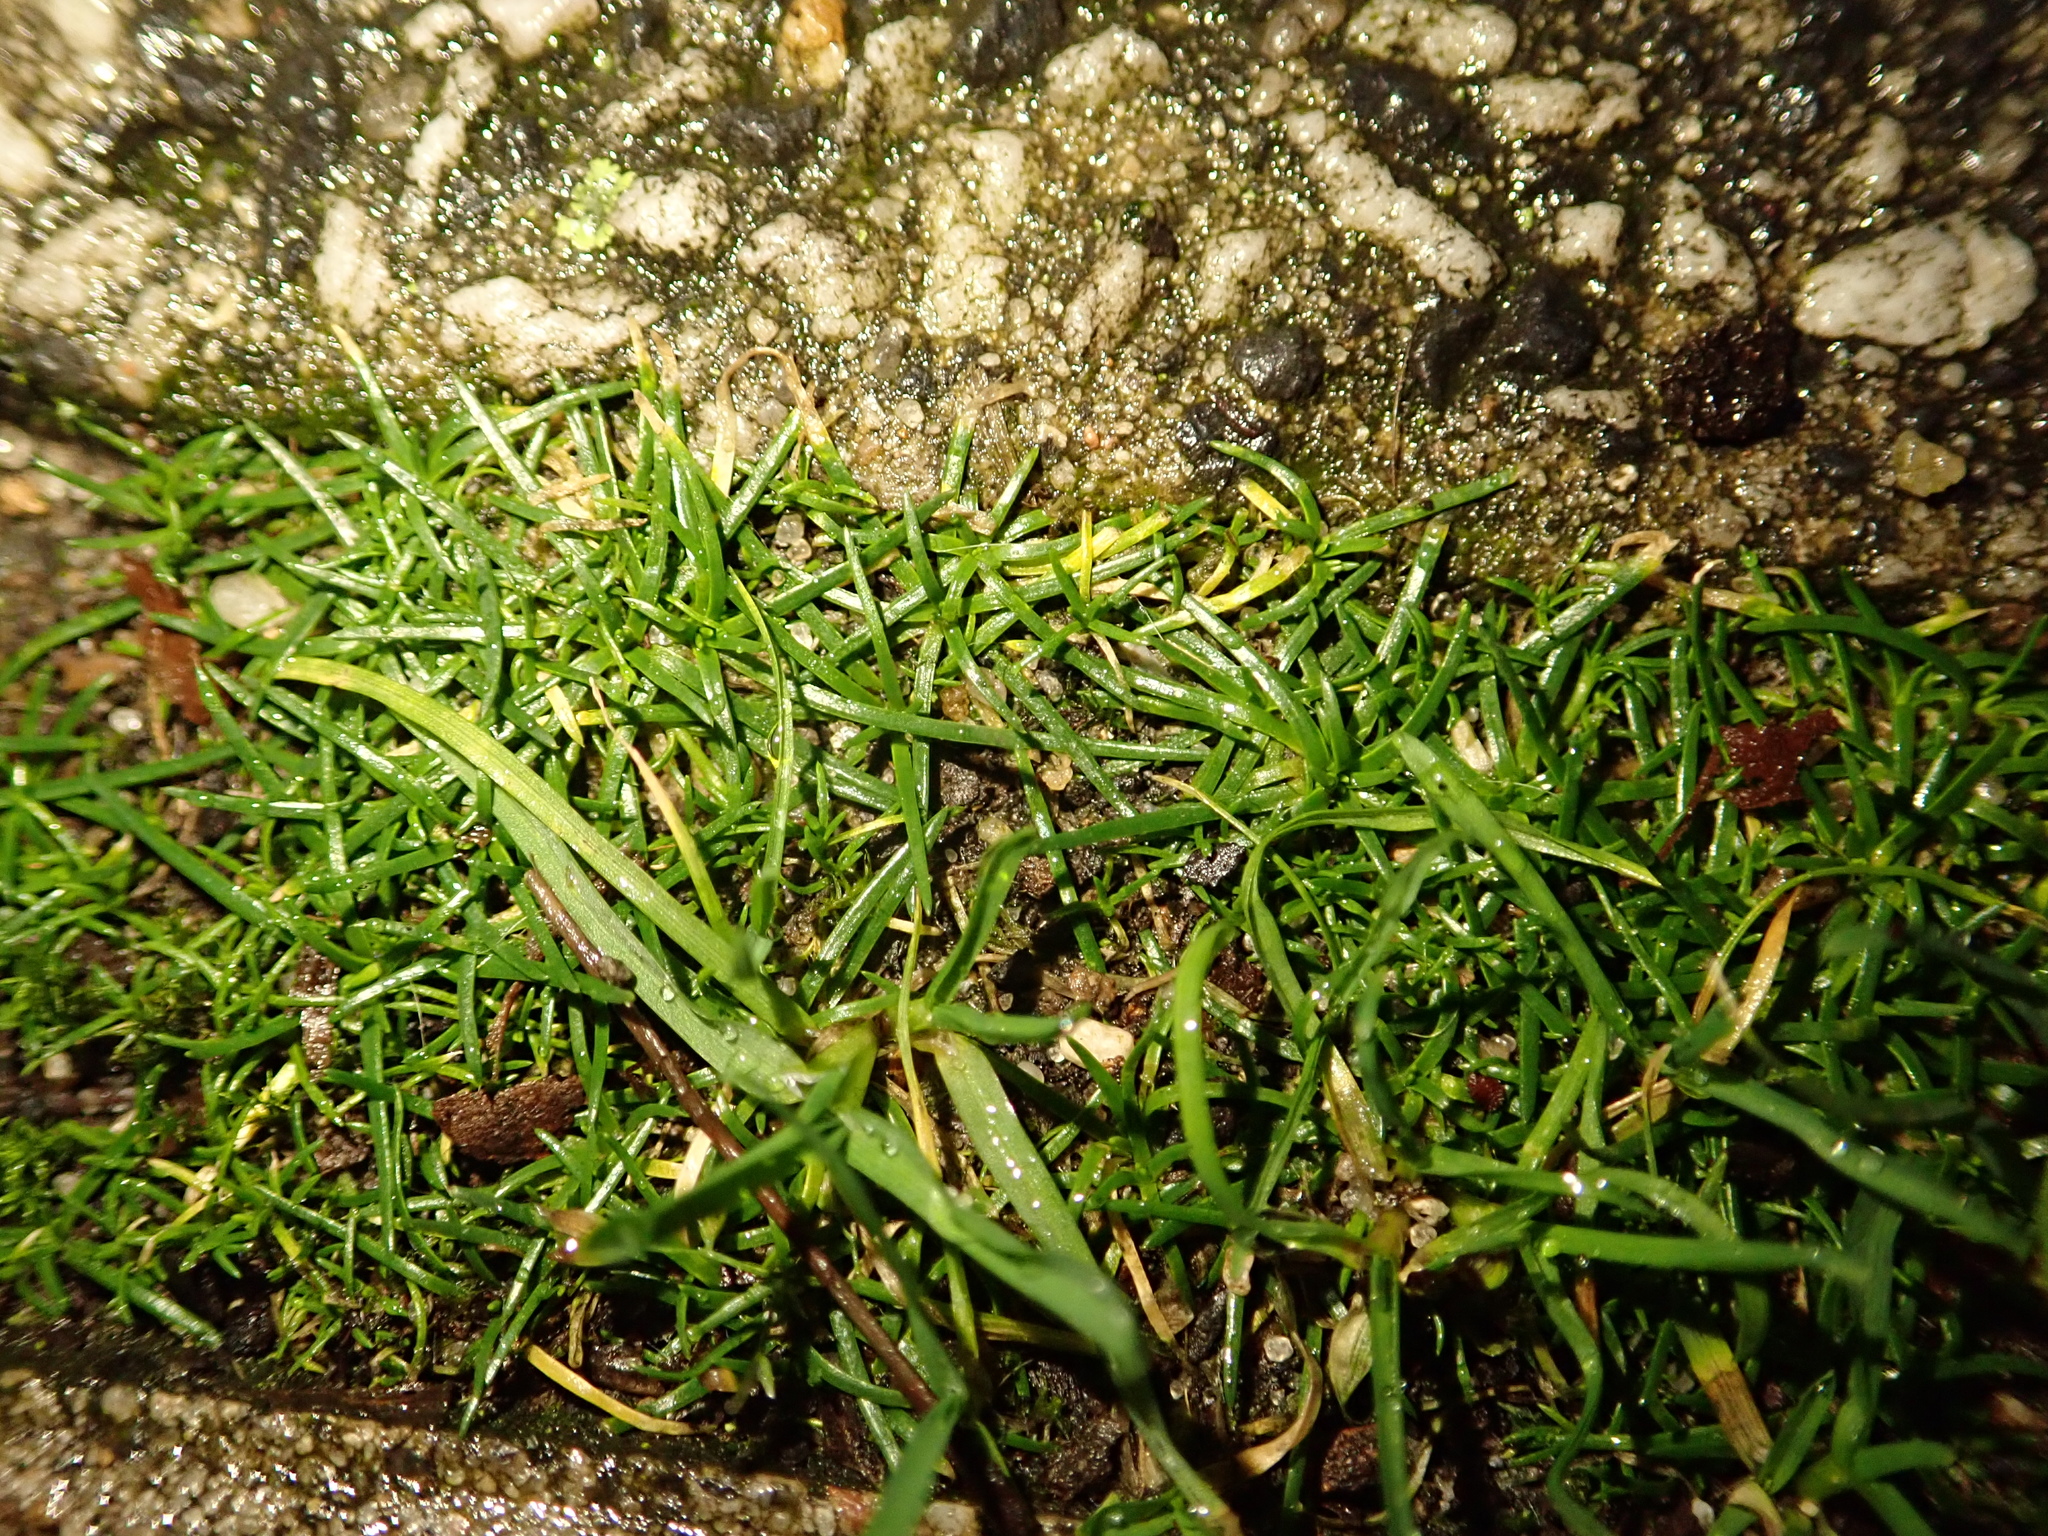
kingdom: Plantae
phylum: Tracheophyta
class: Magnoliopsida
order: Caryophyllales
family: Caryophyllaceae
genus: Sagina
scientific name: Sagina procumbens
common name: Procumbent pearlwort
